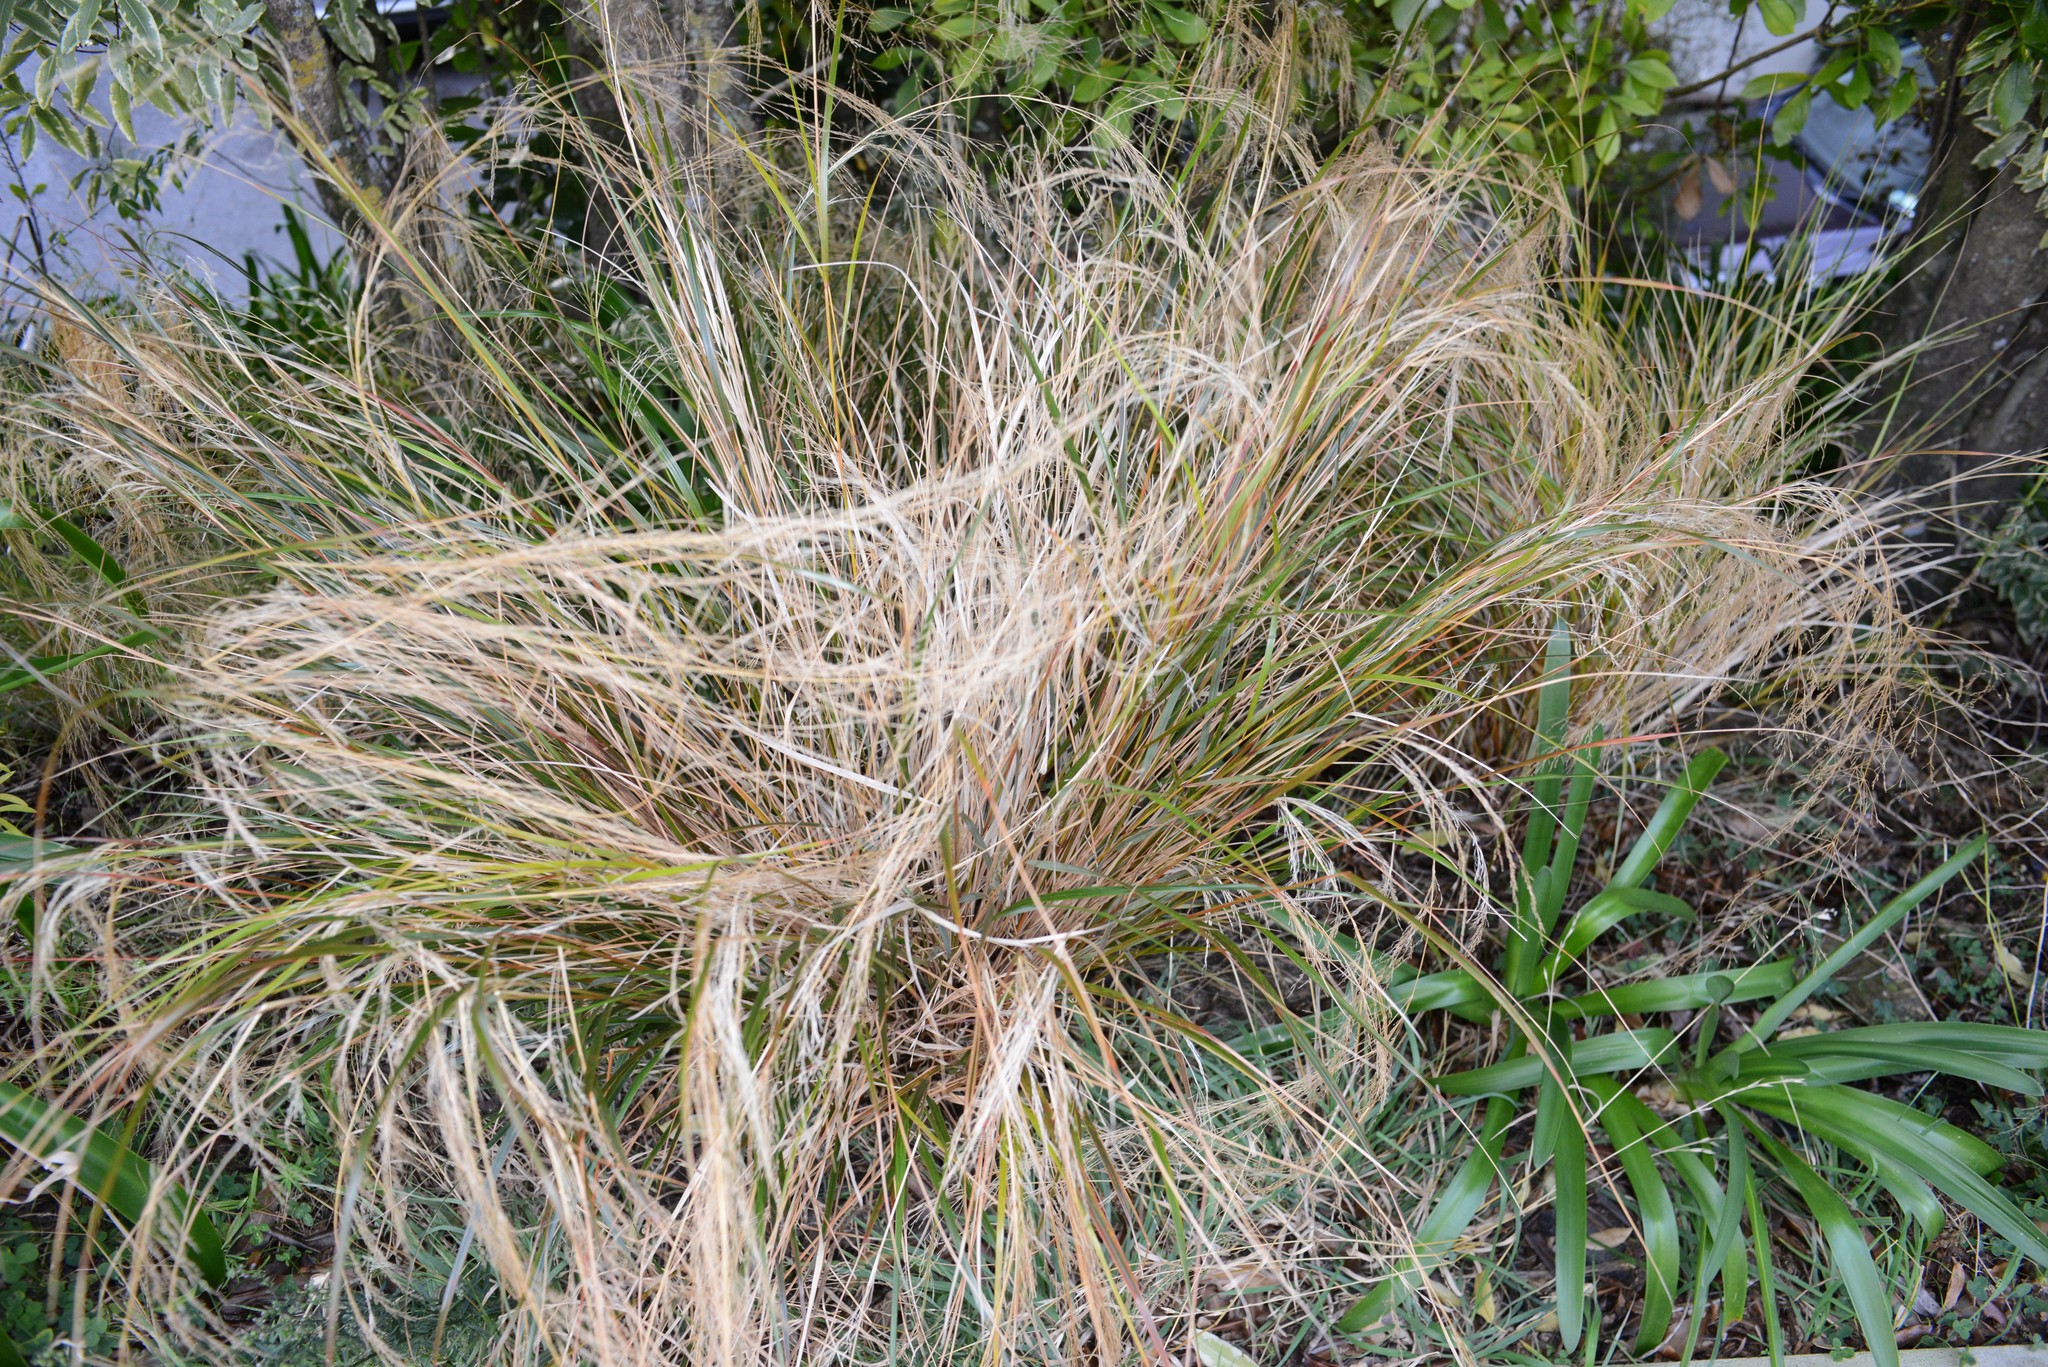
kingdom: Plantae
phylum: Tracheophyta
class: Liliopsida
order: Poales
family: Poaceae
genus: Anemanthele
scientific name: Anemanthele lessoniana
